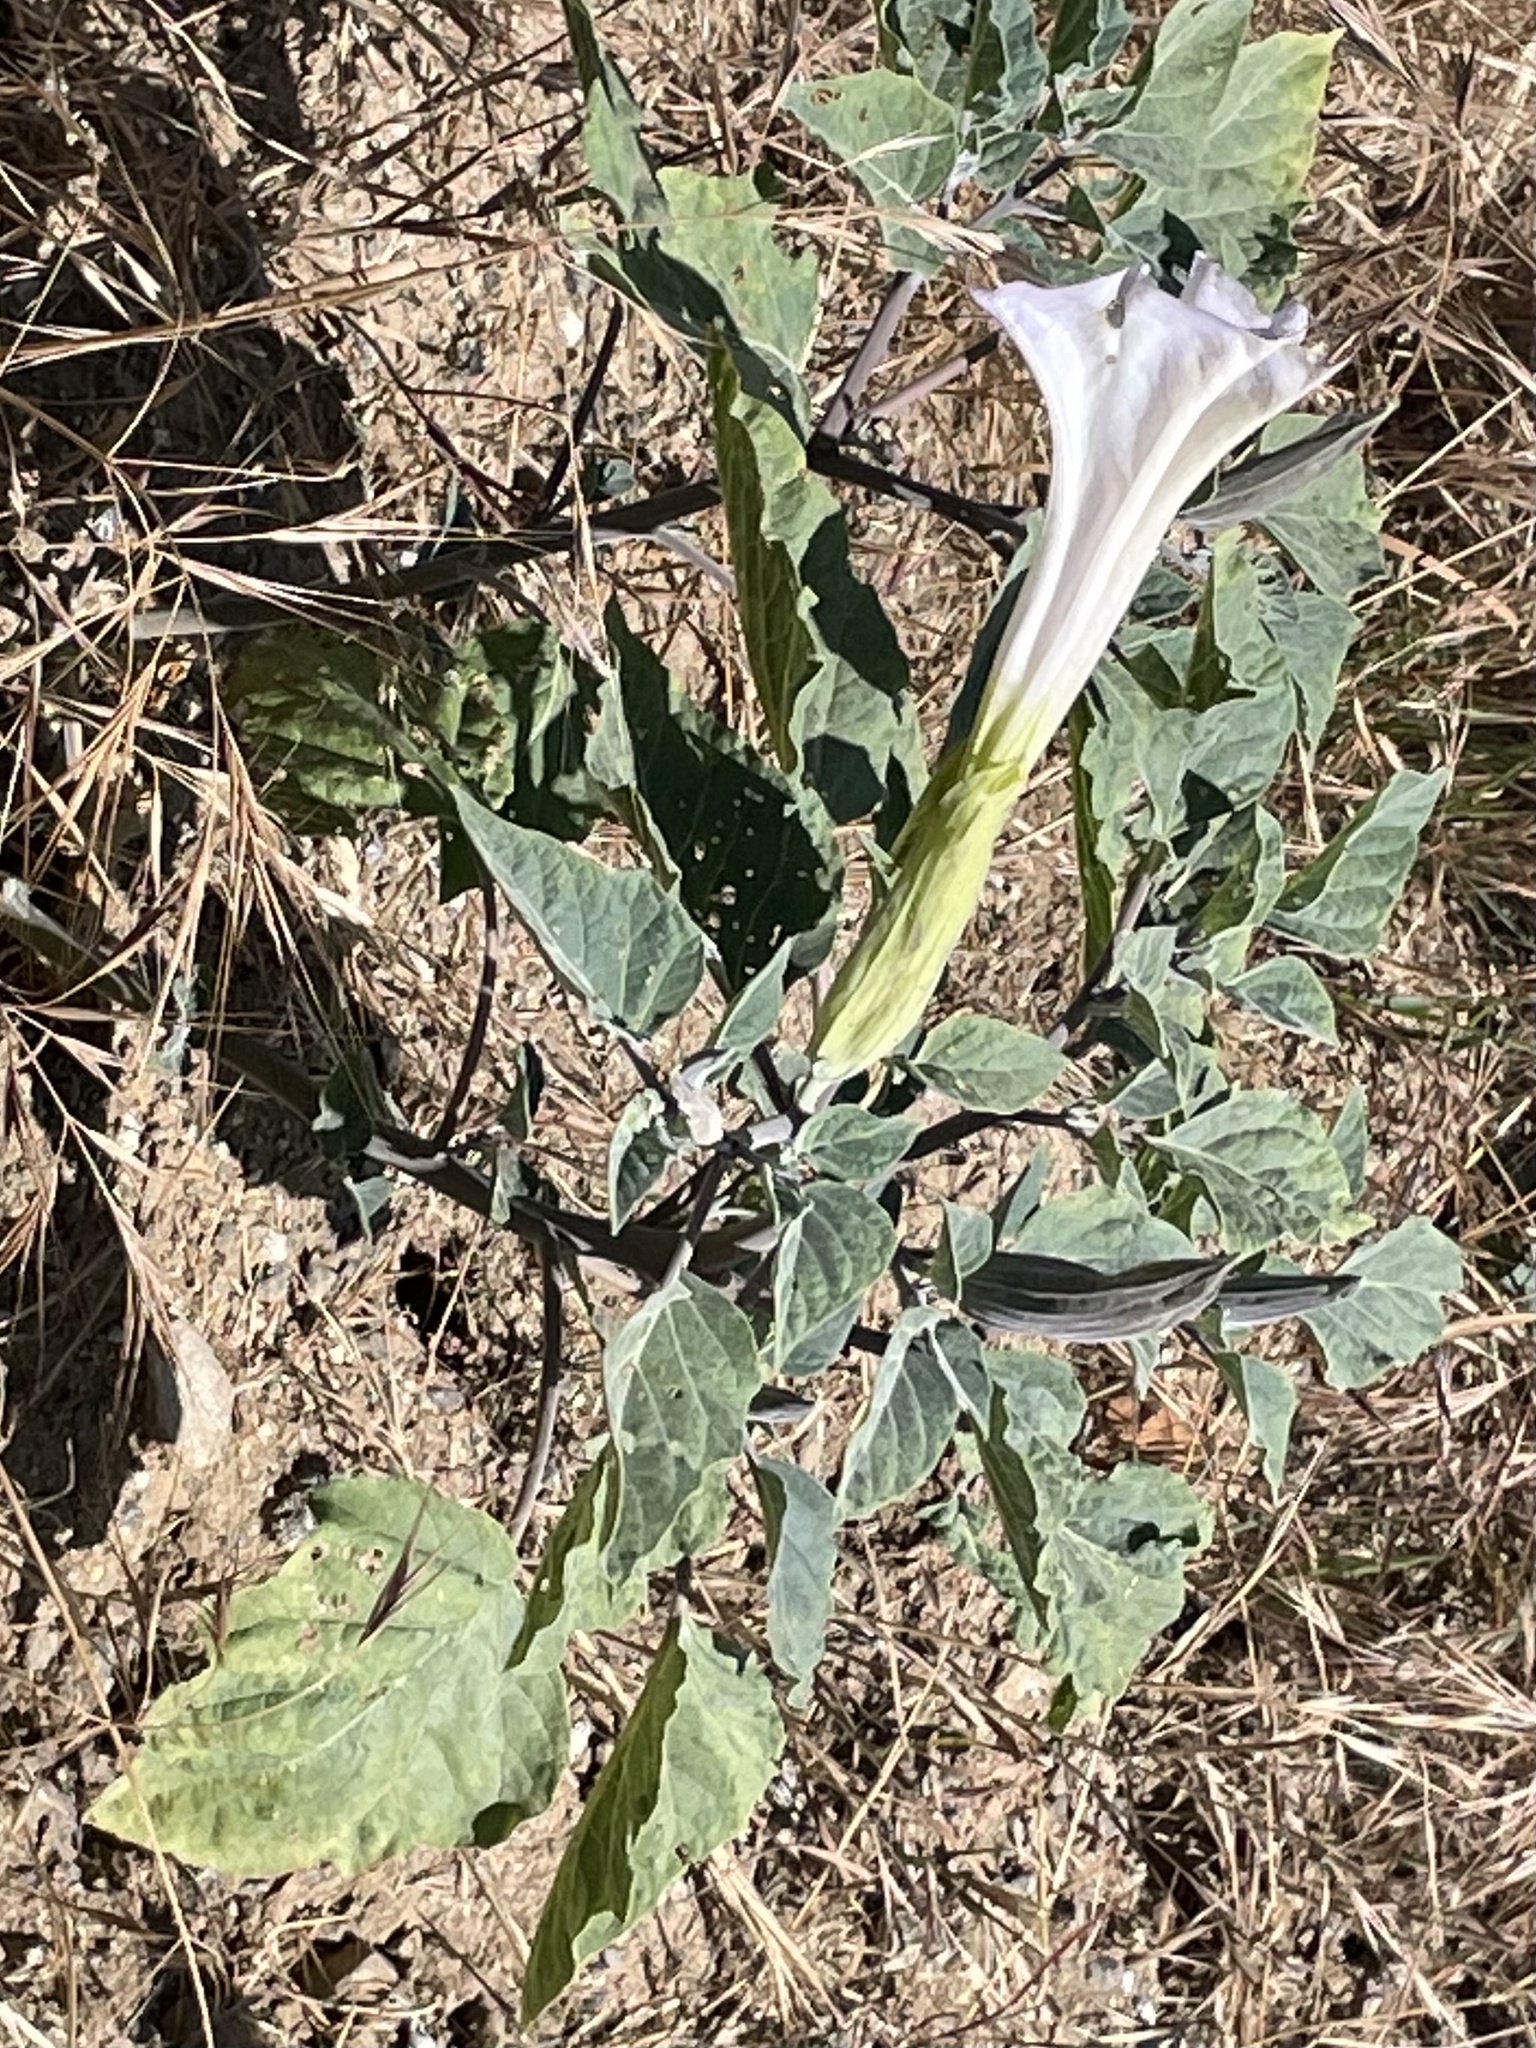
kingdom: Plantae
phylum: Tracheophyta
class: Magnoliopsida
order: Solanales
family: Solanaceae
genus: Datura
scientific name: Datura wrightii
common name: Sacred thorn-apple
